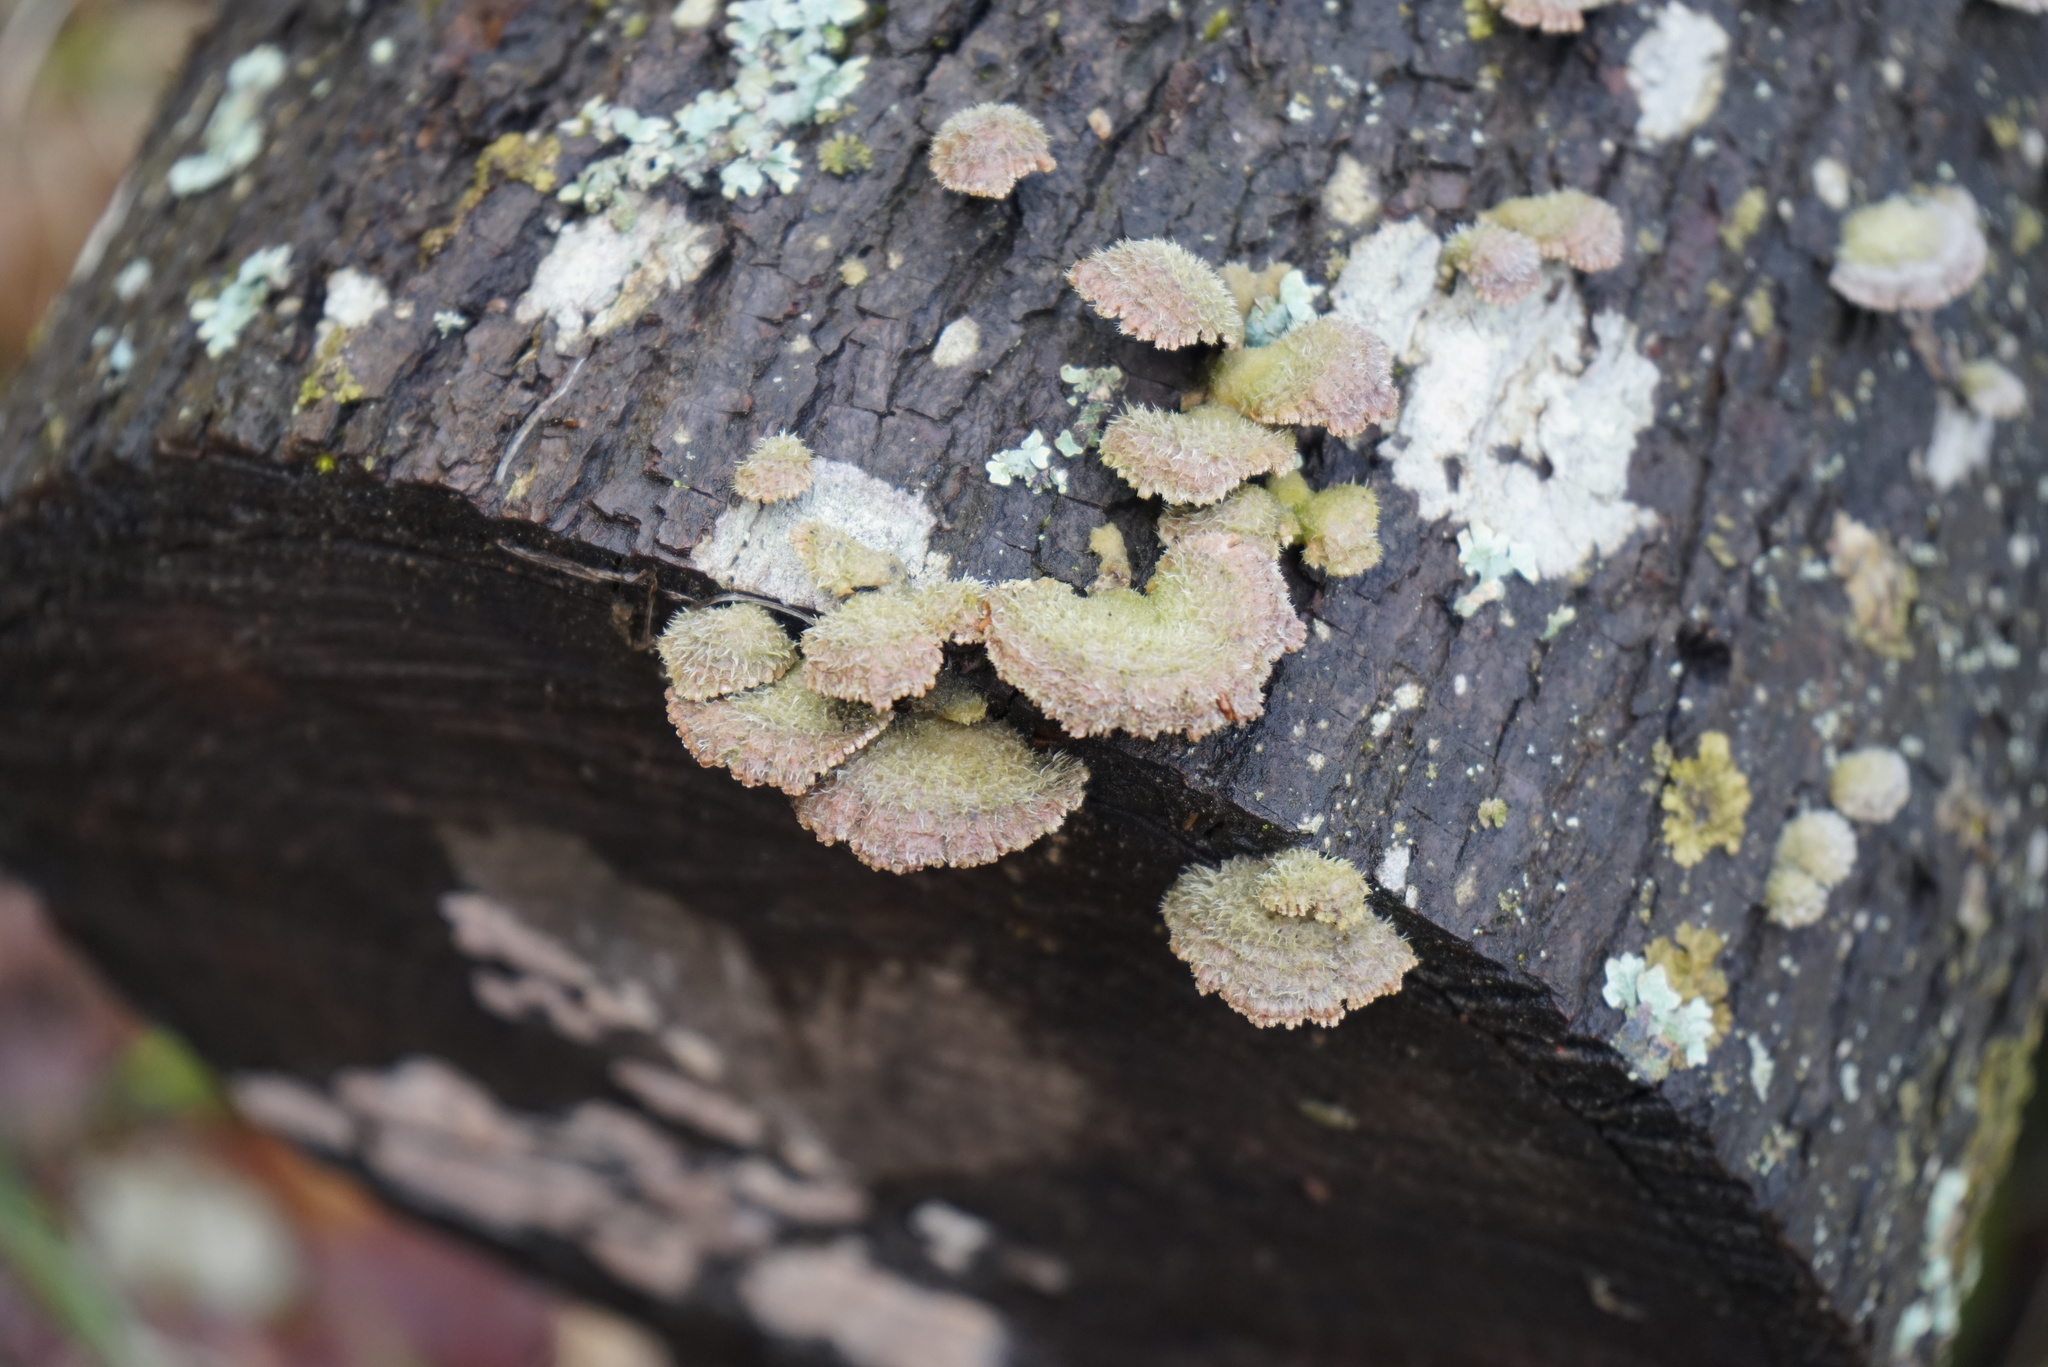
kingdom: Fungi
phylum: Basidiomycota
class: Agaricomycetes
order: Agaricales
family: Schizophyllaceae
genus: Schizophyllum
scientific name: Schizophyllum commune
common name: Common porecrust
